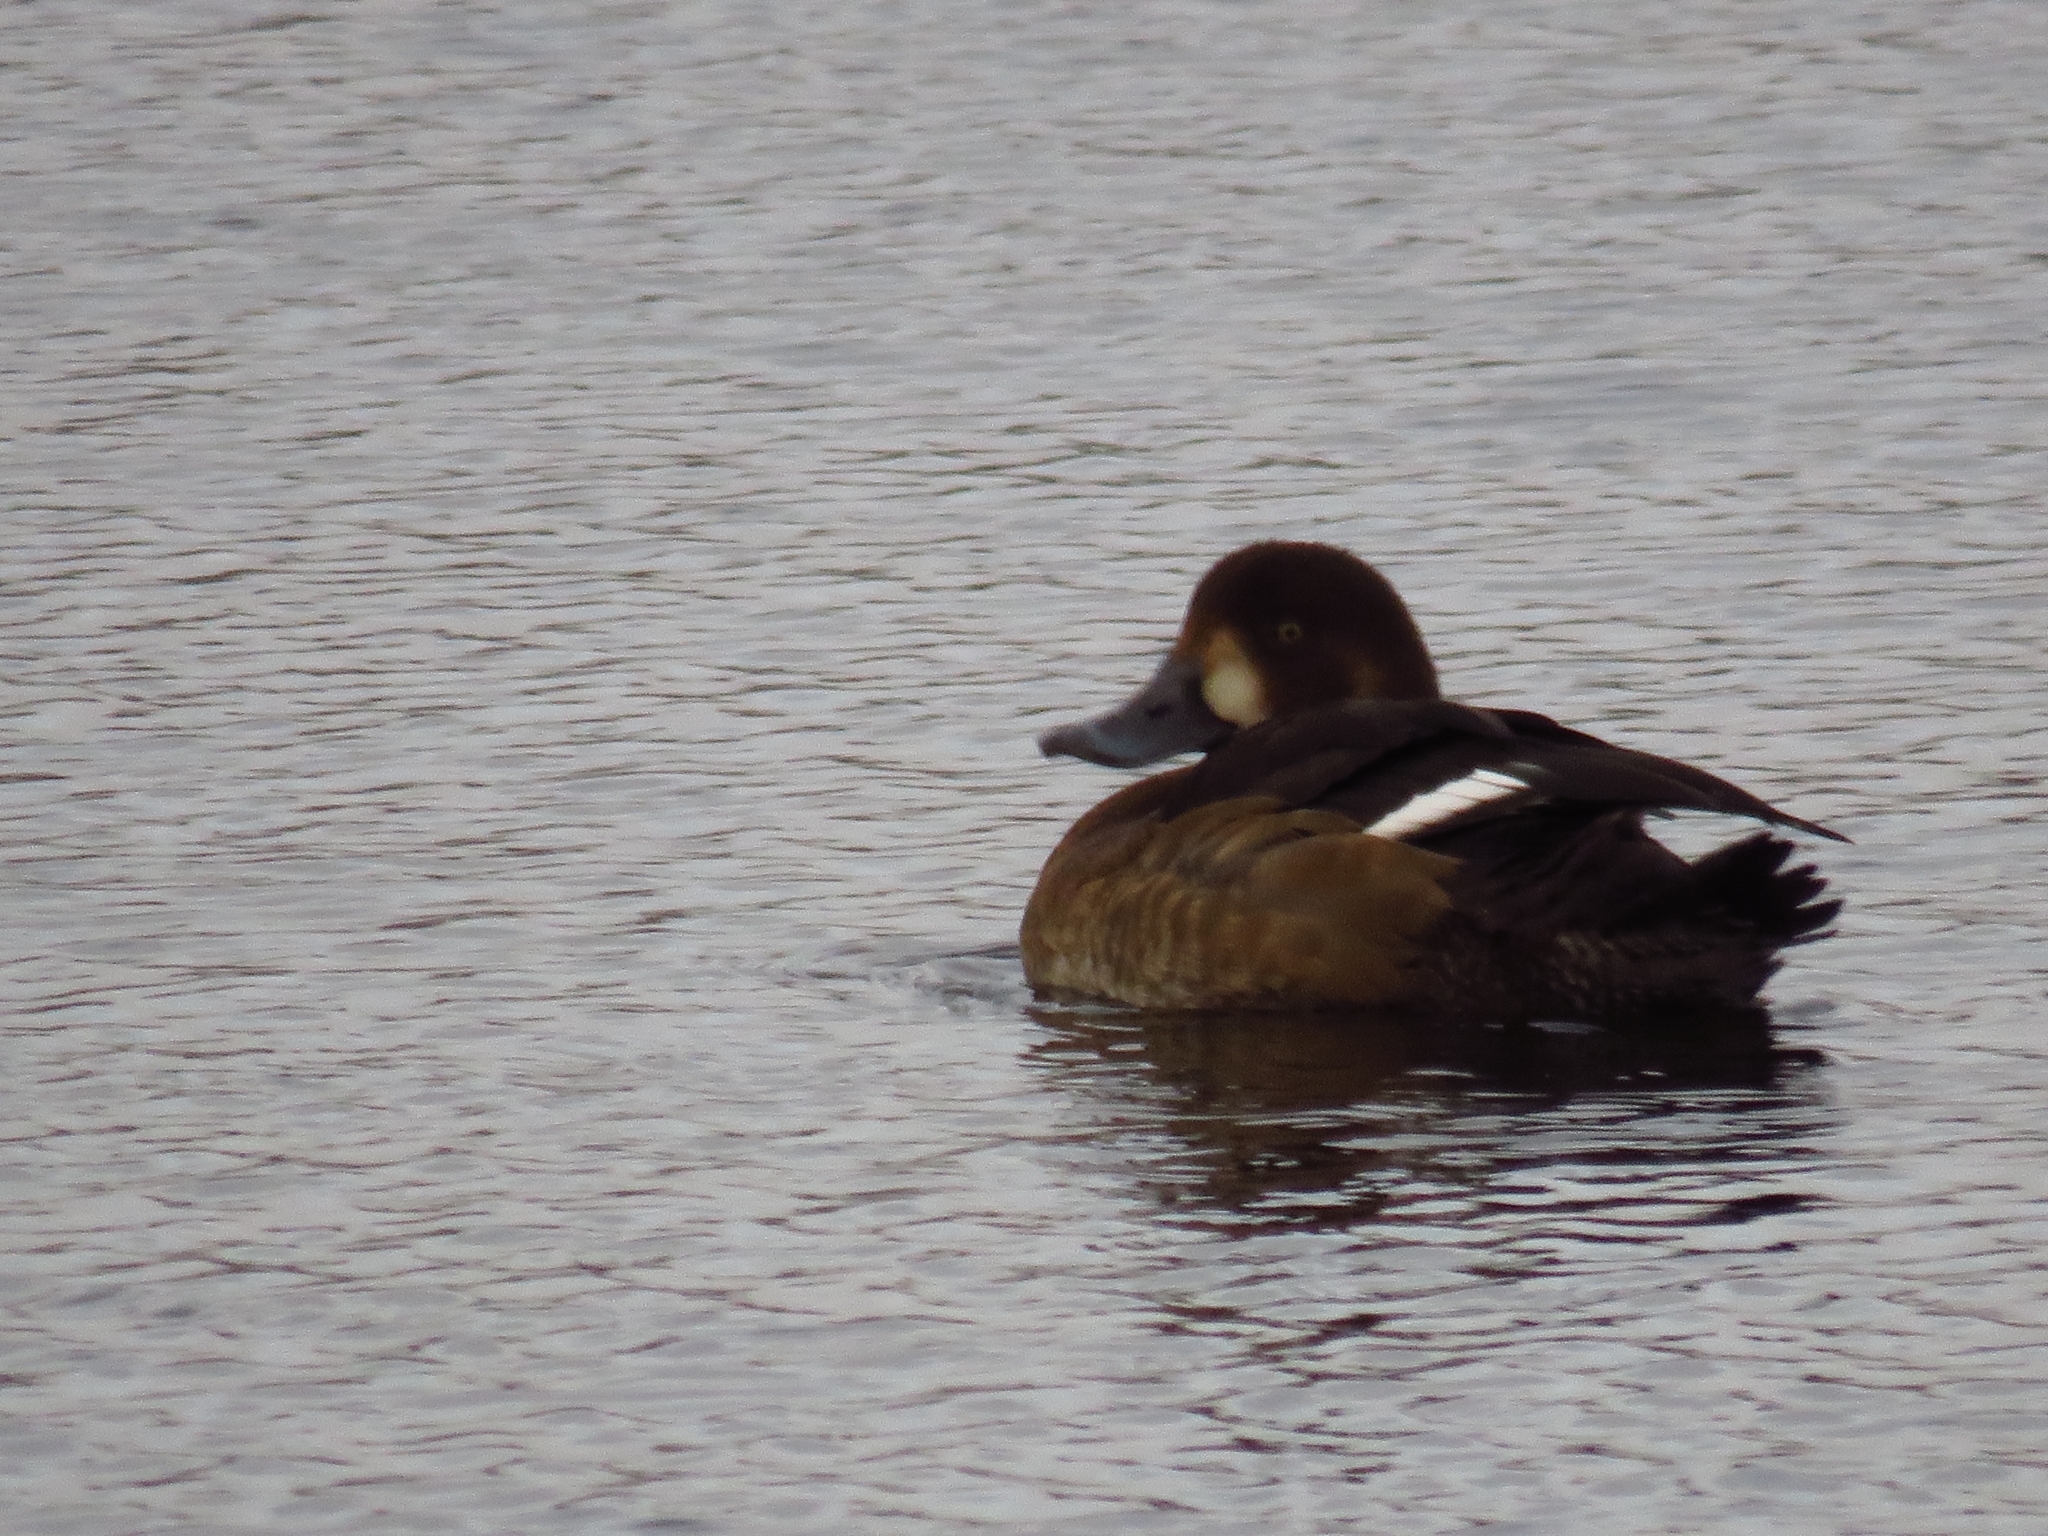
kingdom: Animalia
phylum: Chordata
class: Aves
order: Anseriformes
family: Anatidae
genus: Aythya
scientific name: Aythya marila
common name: Greater scaup
